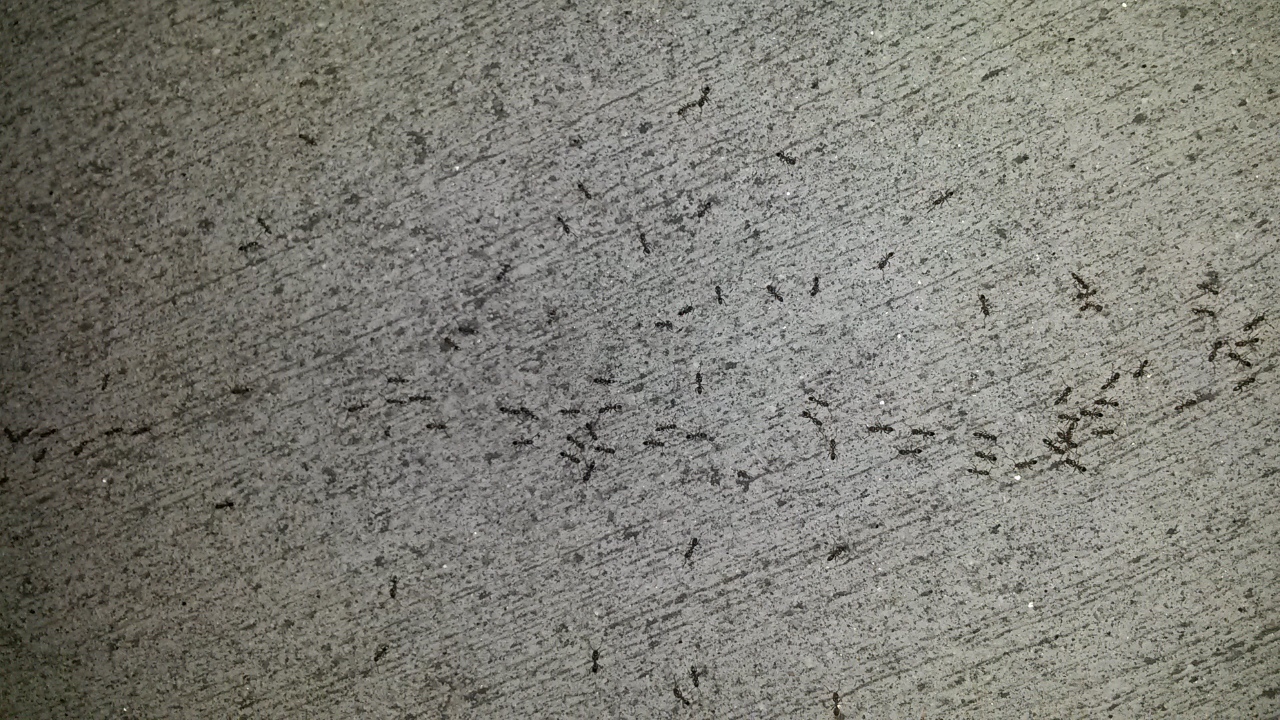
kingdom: Animalia
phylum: Arthropoda
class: Insecta
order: Hymenoptera
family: Formicidae
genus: Linepithema
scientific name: Linepithema humile
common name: Argentine ant
